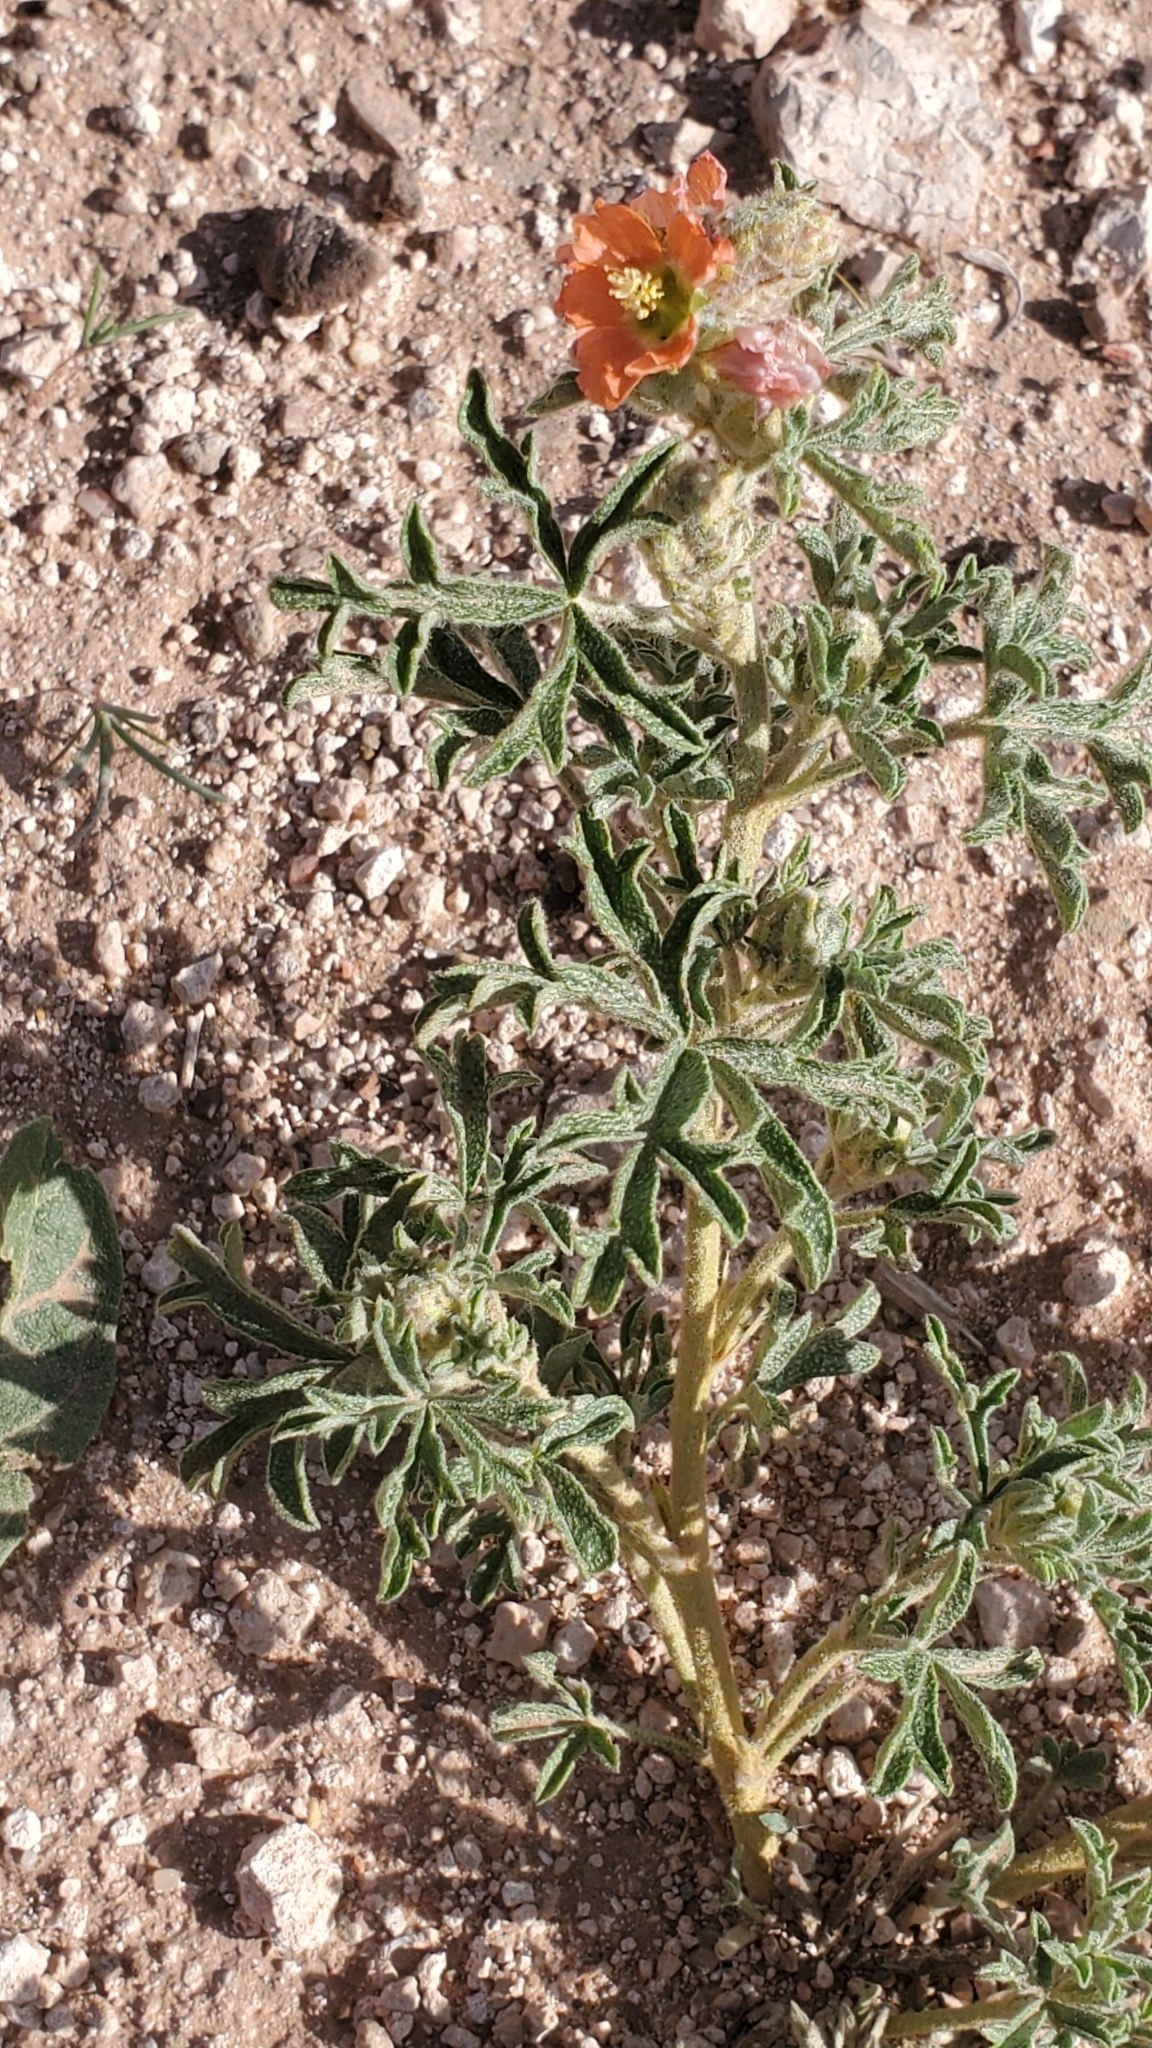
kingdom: Plantae
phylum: Tracheophyta
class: Magnoliopsida
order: Malvales
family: Malvaceae
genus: Sphaeralcea
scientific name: Sphaeralcea coccinea
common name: Moss-rose
